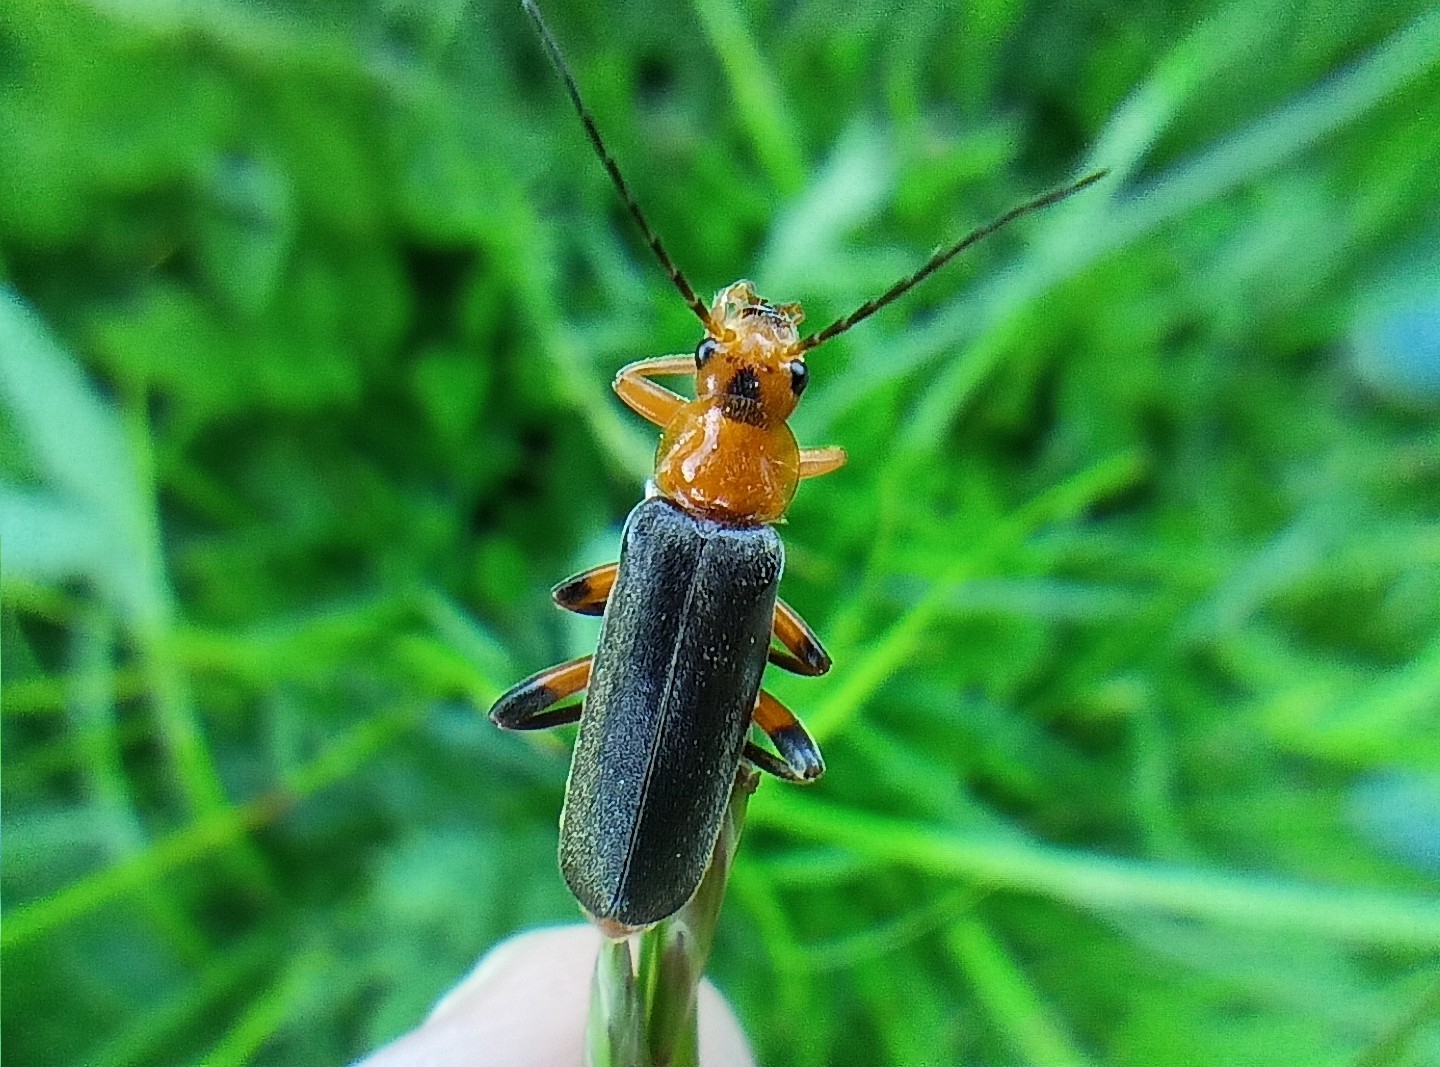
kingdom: Animalia
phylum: Arthropoda
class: Insecta
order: Coleoptera
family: Cantharidae
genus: Cantharis
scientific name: Cantharis livida
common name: Livid soldier beetle
